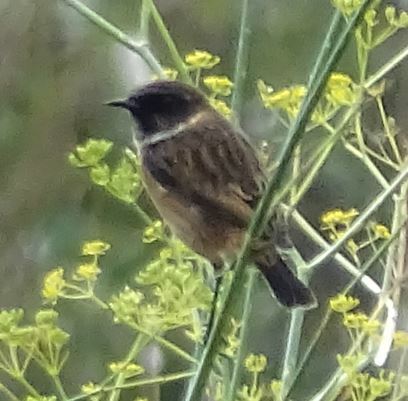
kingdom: Animalia
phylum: Chordata
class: Aves
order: Passeriformes
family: Muscicapidae
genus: Saxicola
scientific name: Saxicola rubicola
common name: European stonechat
